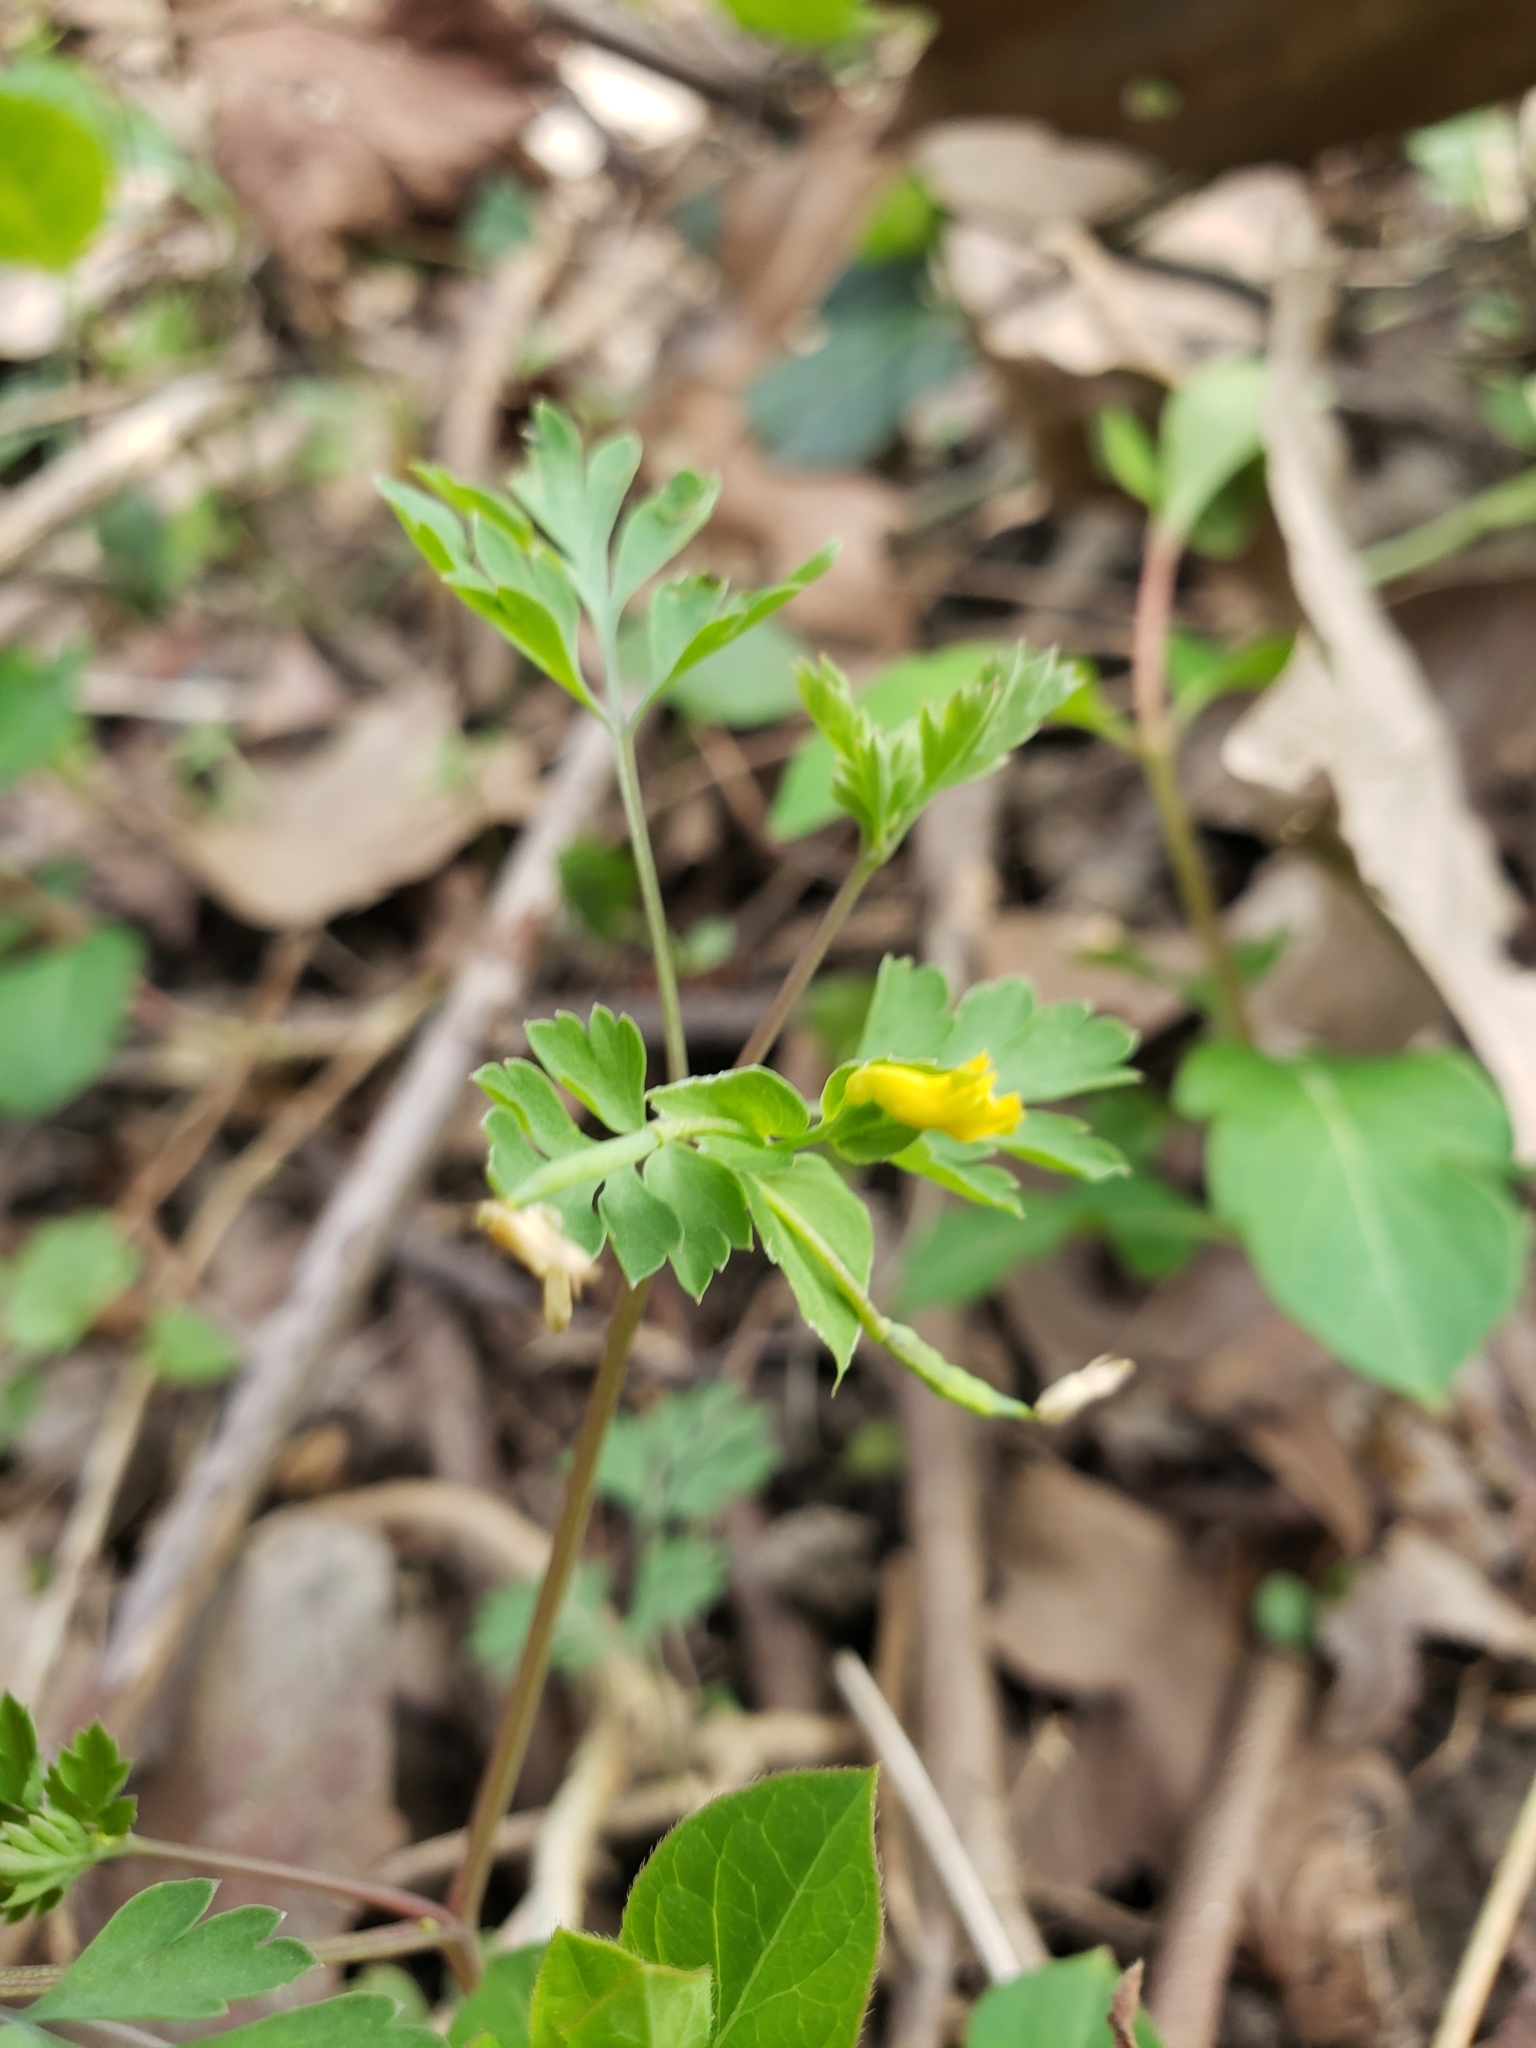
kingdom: Plantae
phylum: Tracheophyta
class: Magnoliopsida
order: Ranunculales
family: Papaveraceae
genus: Corydalis
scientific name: Corydalis flavula
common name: Yellow corydalis
